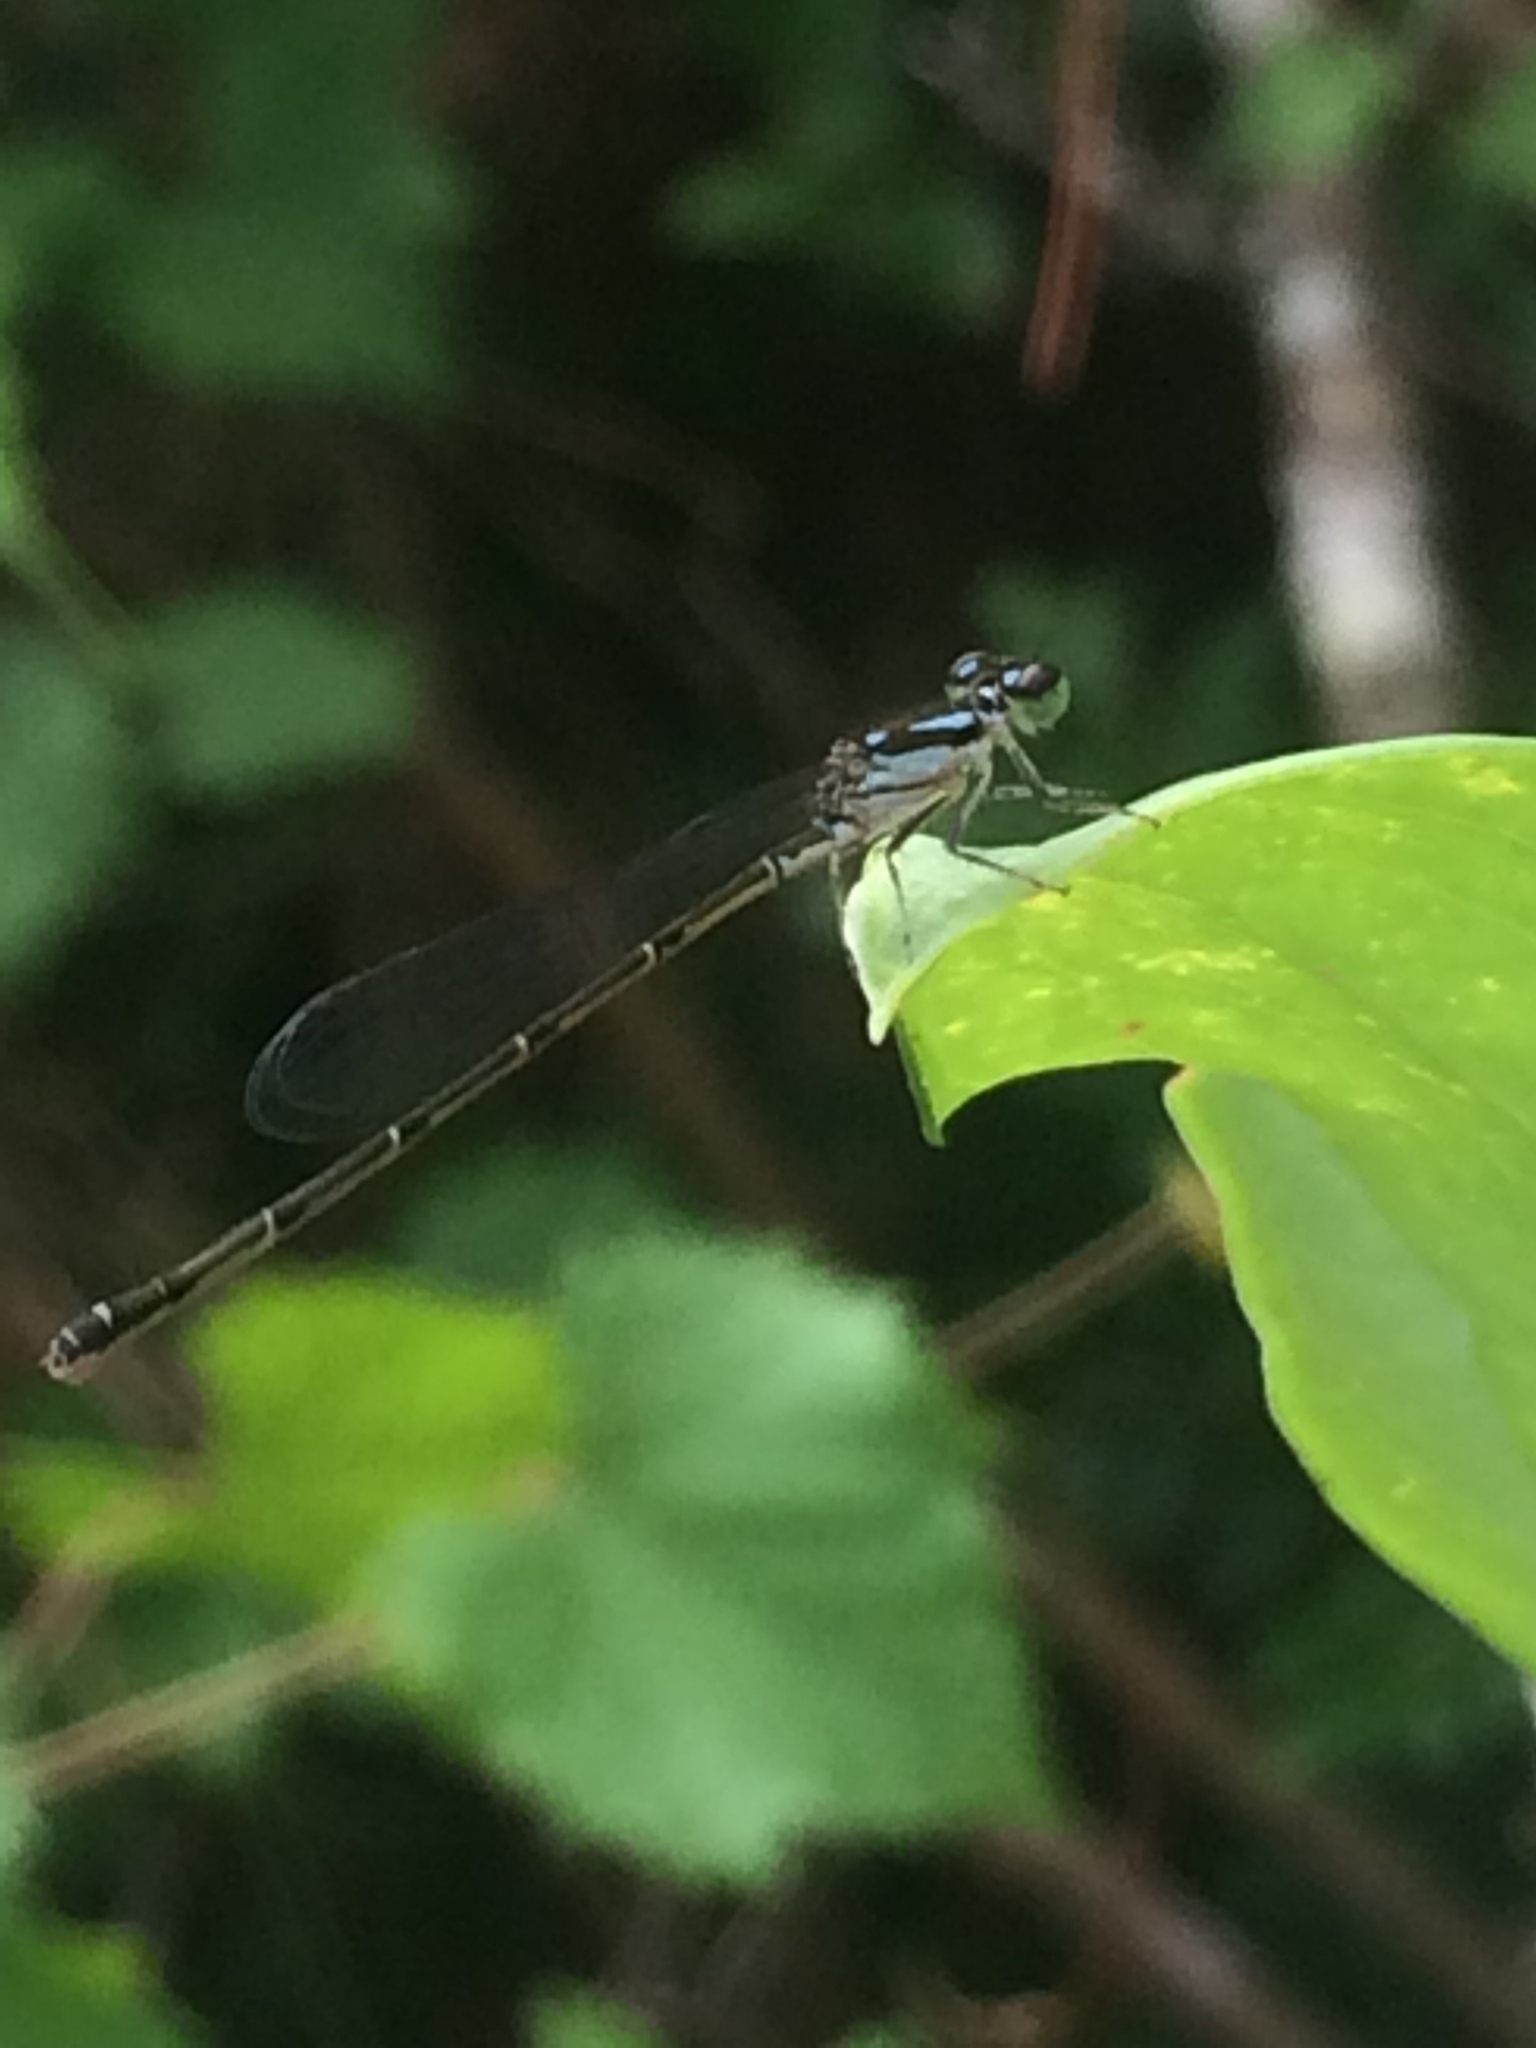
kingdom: Animalia
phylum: Arthropoda
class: Insecta
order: Odonata
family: Coenagrionidae
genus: Ischnura
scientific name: Ischnura posita
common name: Fragile forktail
